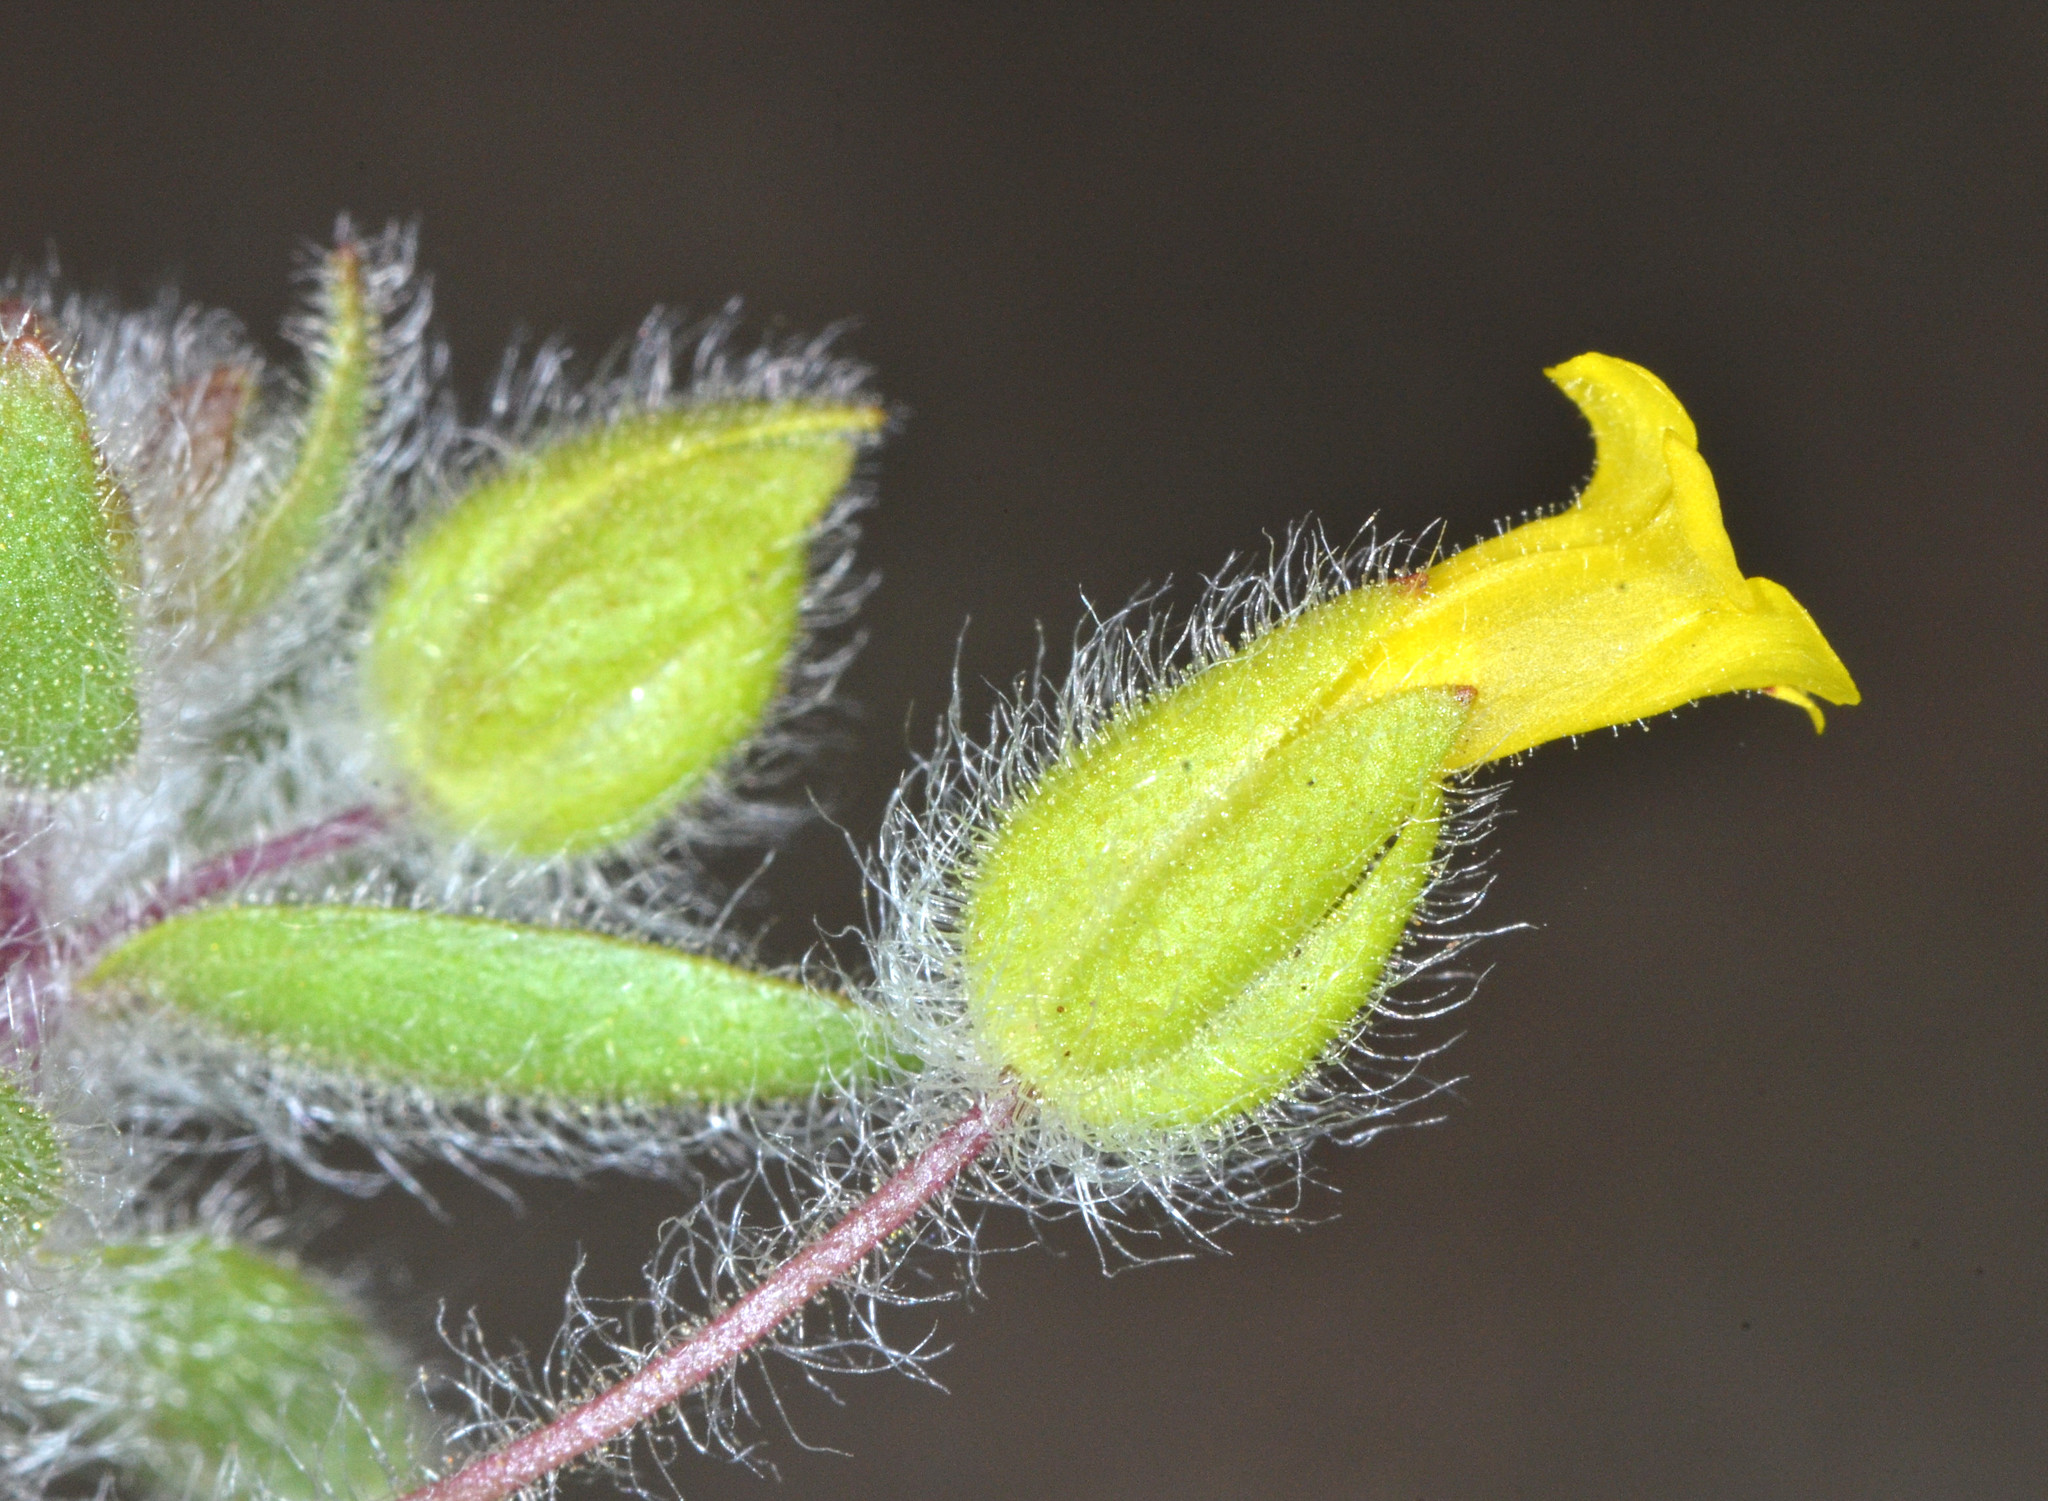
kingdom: Plantae
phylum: Tracheophyta
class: Magnoliopsida
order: Lamiales
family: Phrymaceae
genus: Mimetanthe
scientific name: Mimetanthe pilosa
